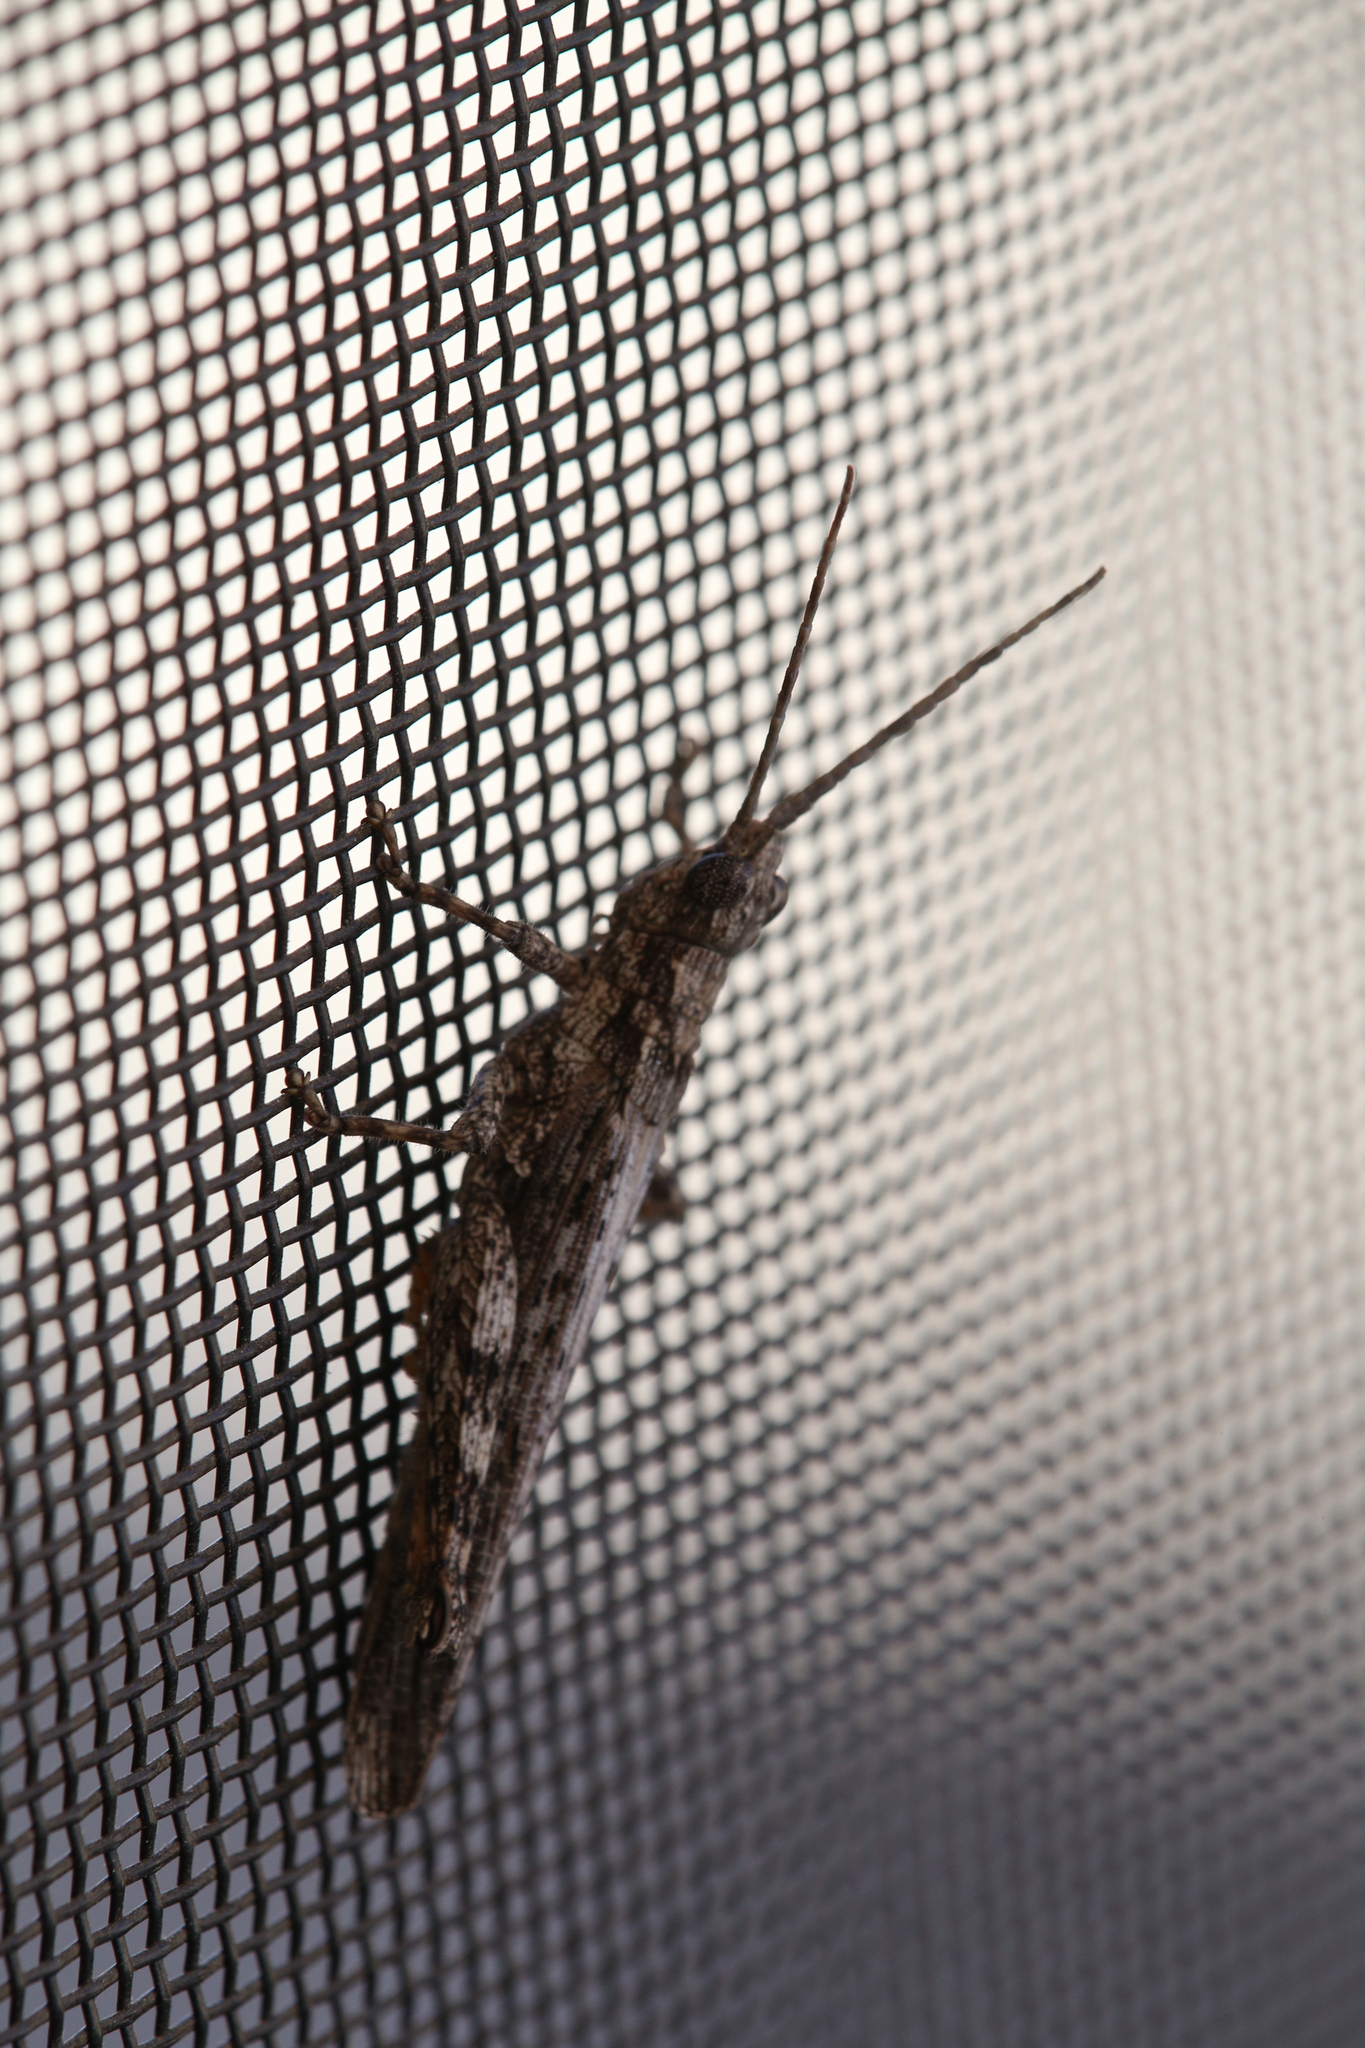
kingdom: Animalia
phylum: Arthropoda
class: Insecta
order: Orthoptera
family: Acrididae
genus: Coryphistes
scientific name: Coryphistes ruricola
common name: Bark-mimicking grasshopper
